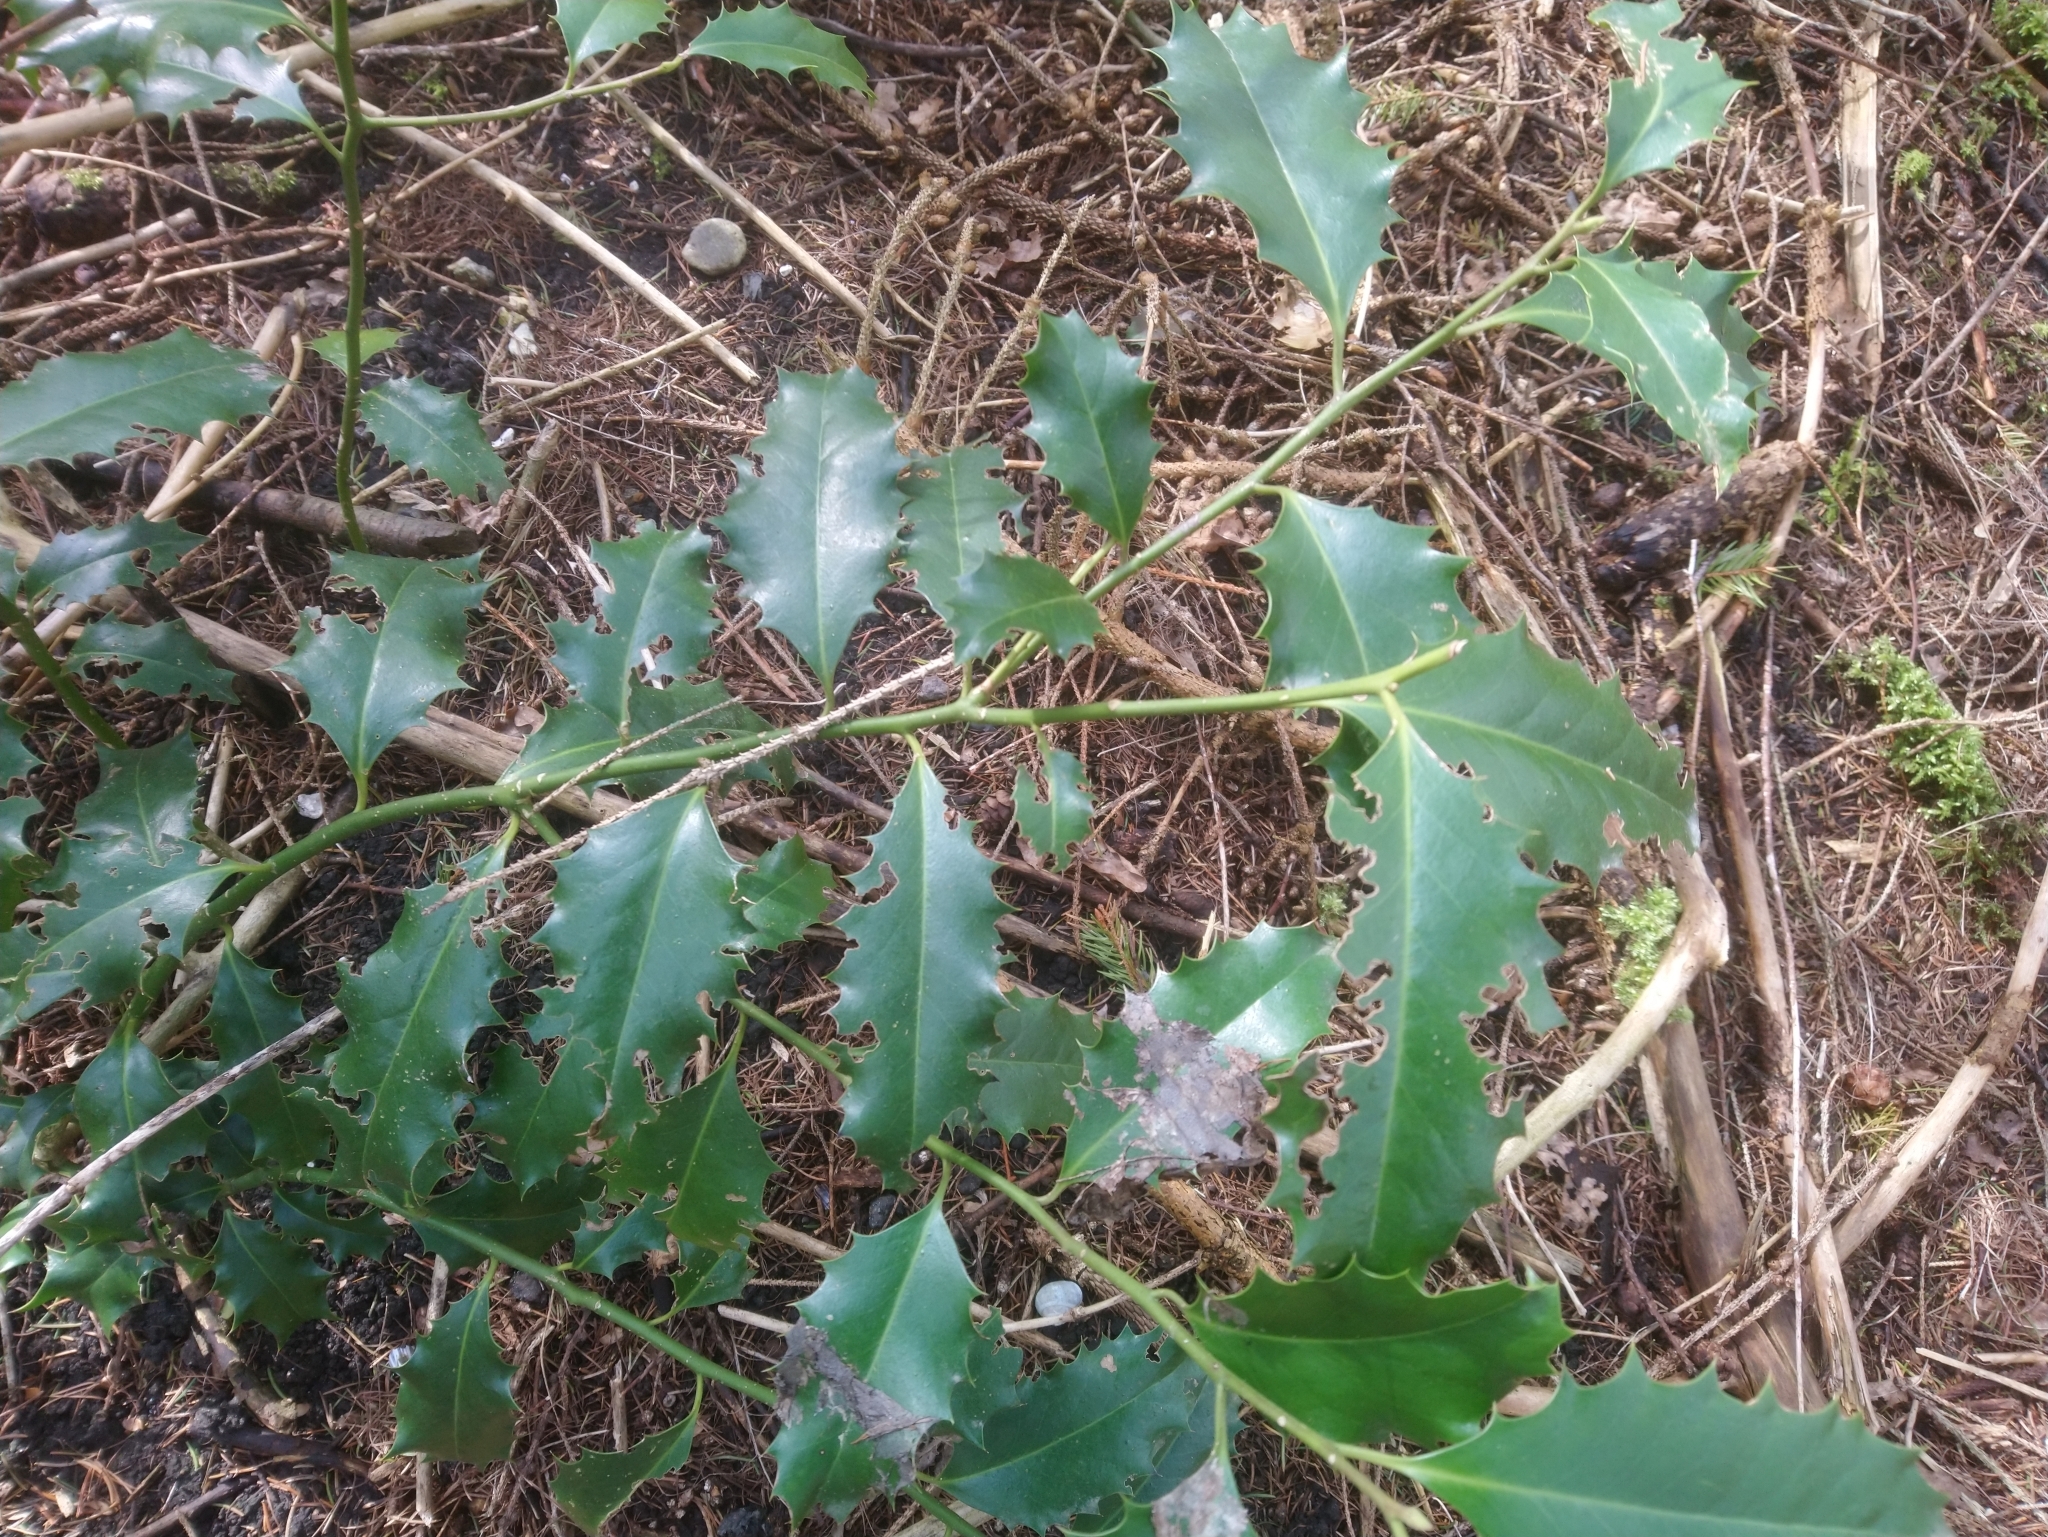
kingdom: Plantae
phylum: Tracheophyta
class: Magnoliopsida
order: Aquifoliales
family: Aquifoliaceae
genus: Ilex
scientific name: Ilex aquifolium
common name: English holly
